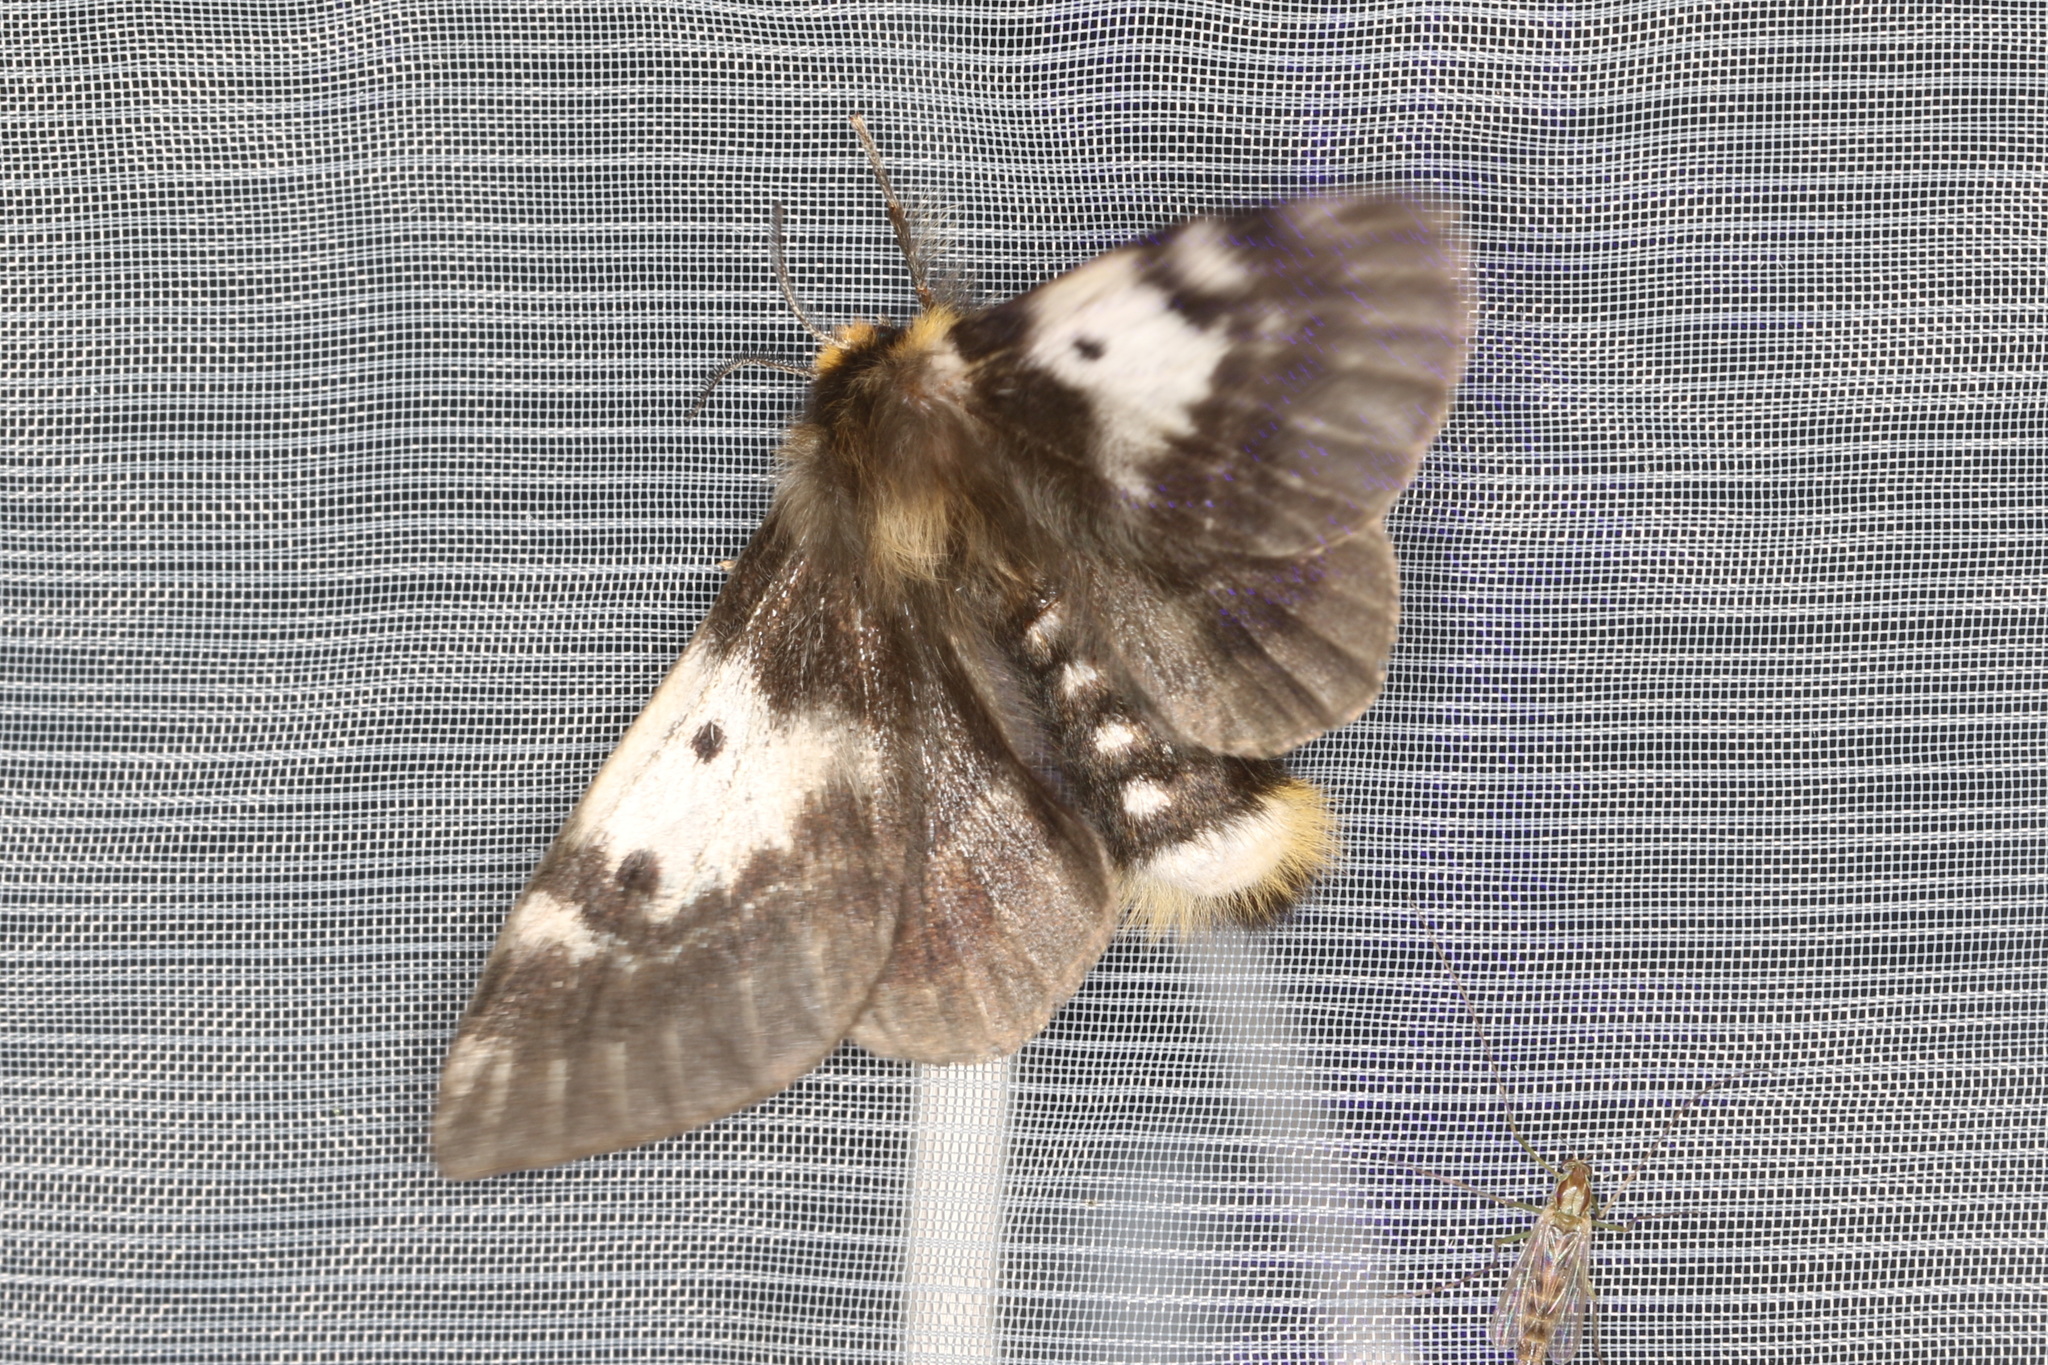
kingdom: Animalia
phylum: Arthropoda
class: Insecta
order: Lepidoptera
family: Anthelidae
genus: Nataxa
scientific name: Nataxa flavescens
